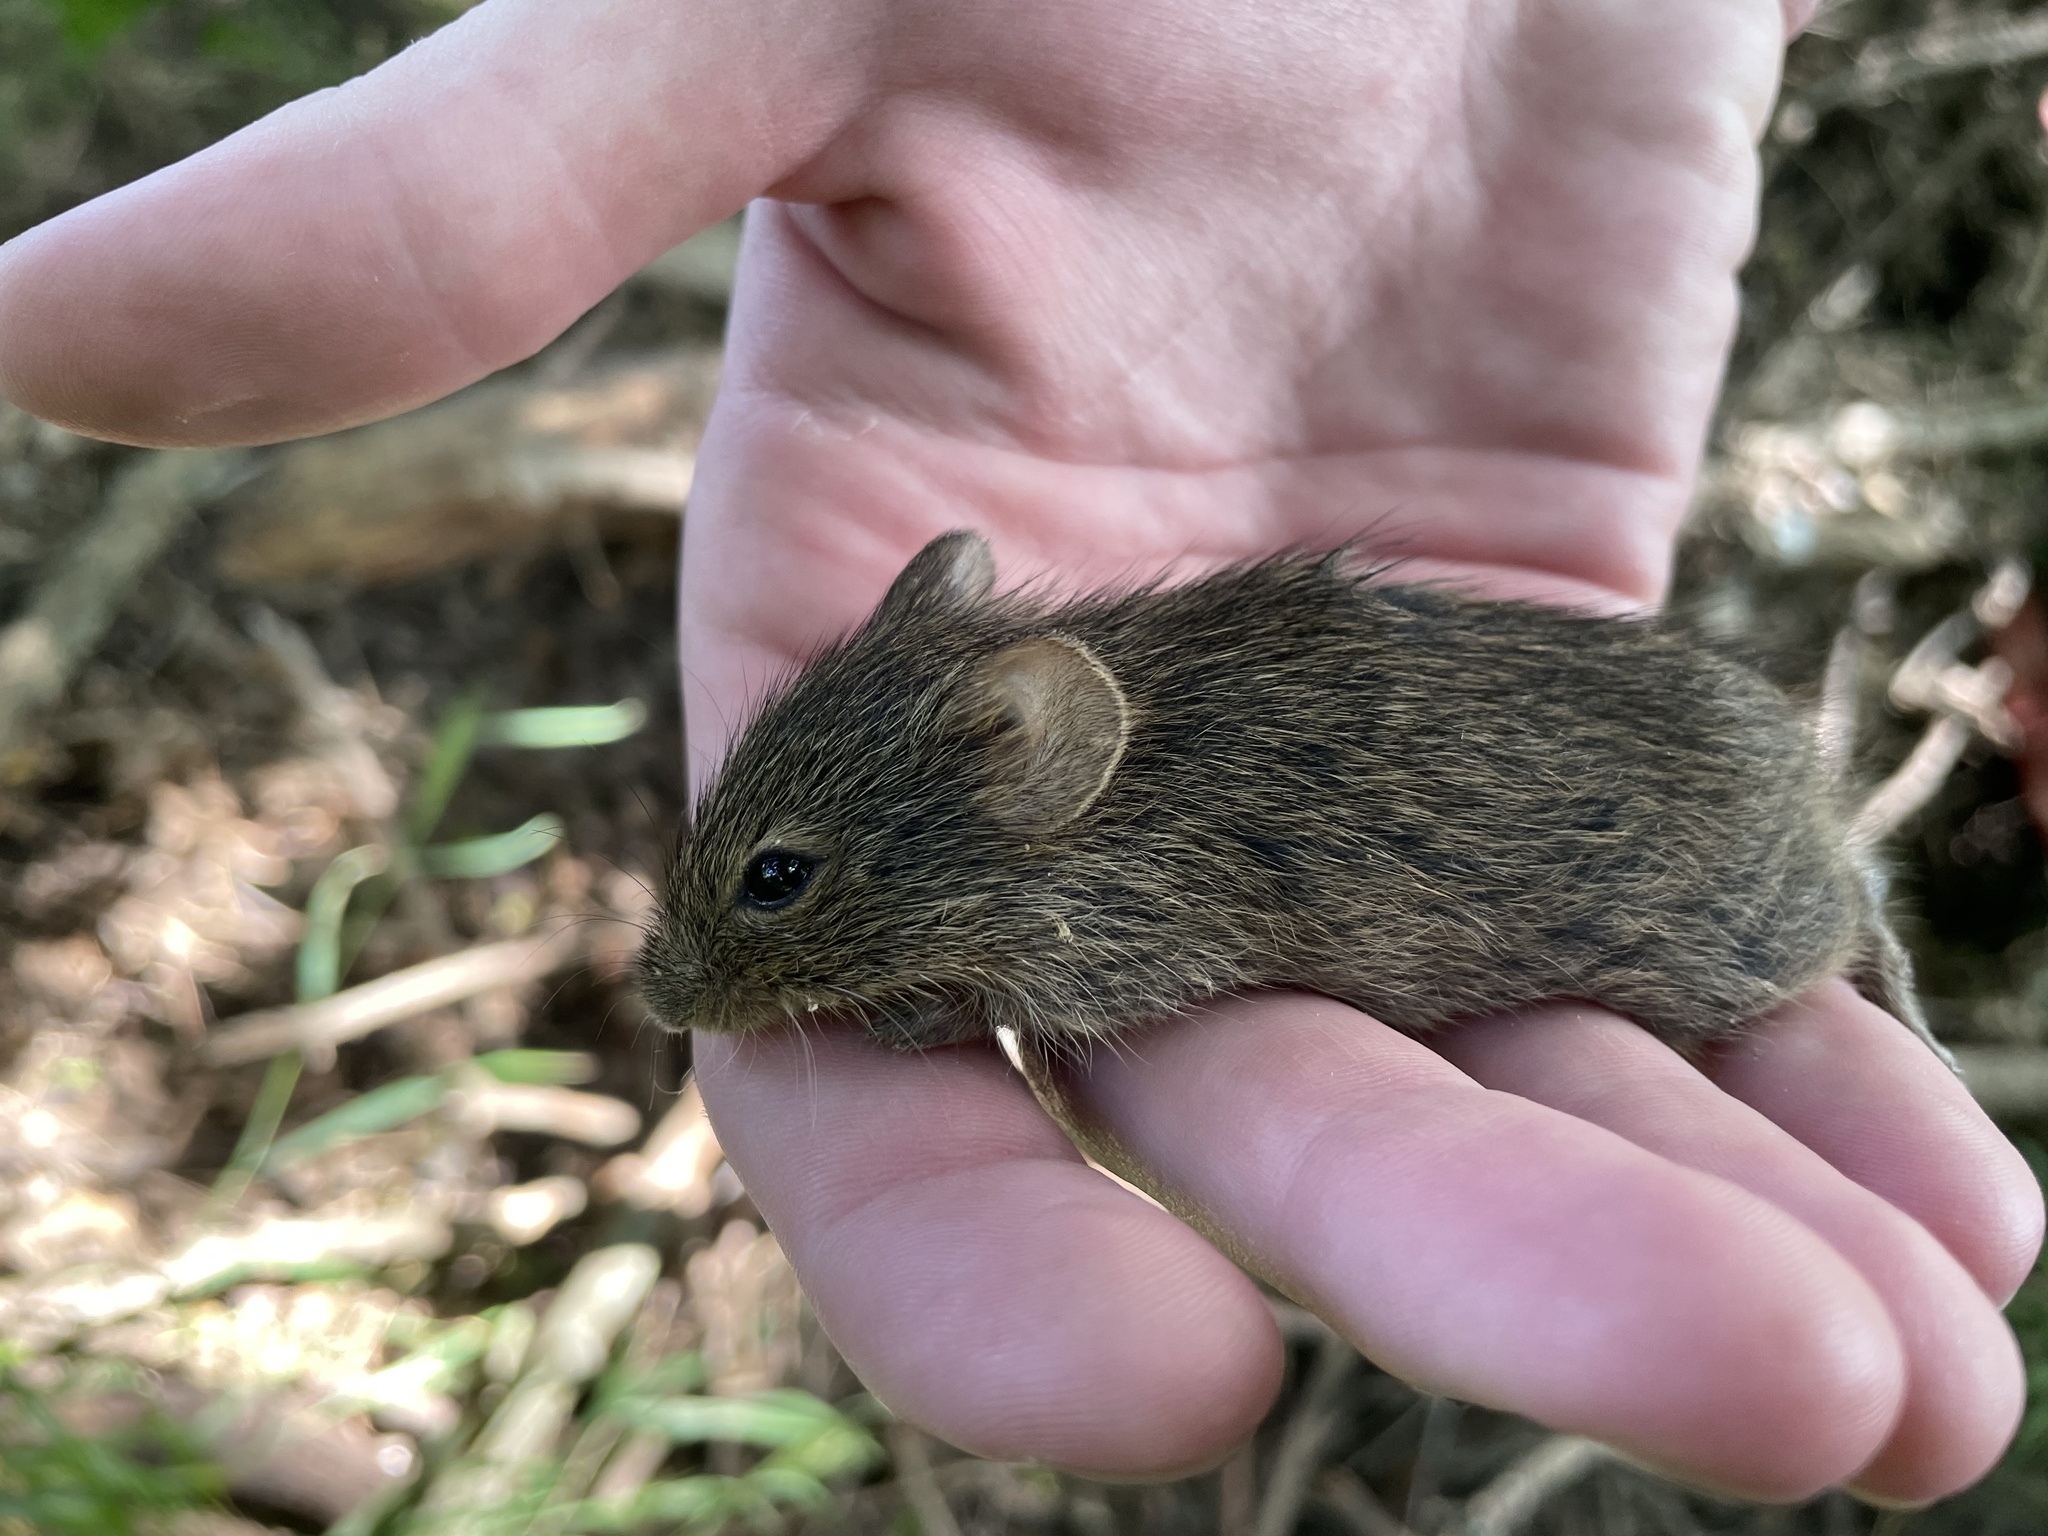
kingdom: Animalia
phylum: Chordata
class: Mammalia
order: Rodentia
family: Cricetidae
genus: Sigmodon
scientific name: Sigmodon hispidus
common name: Hispid cotton rat
